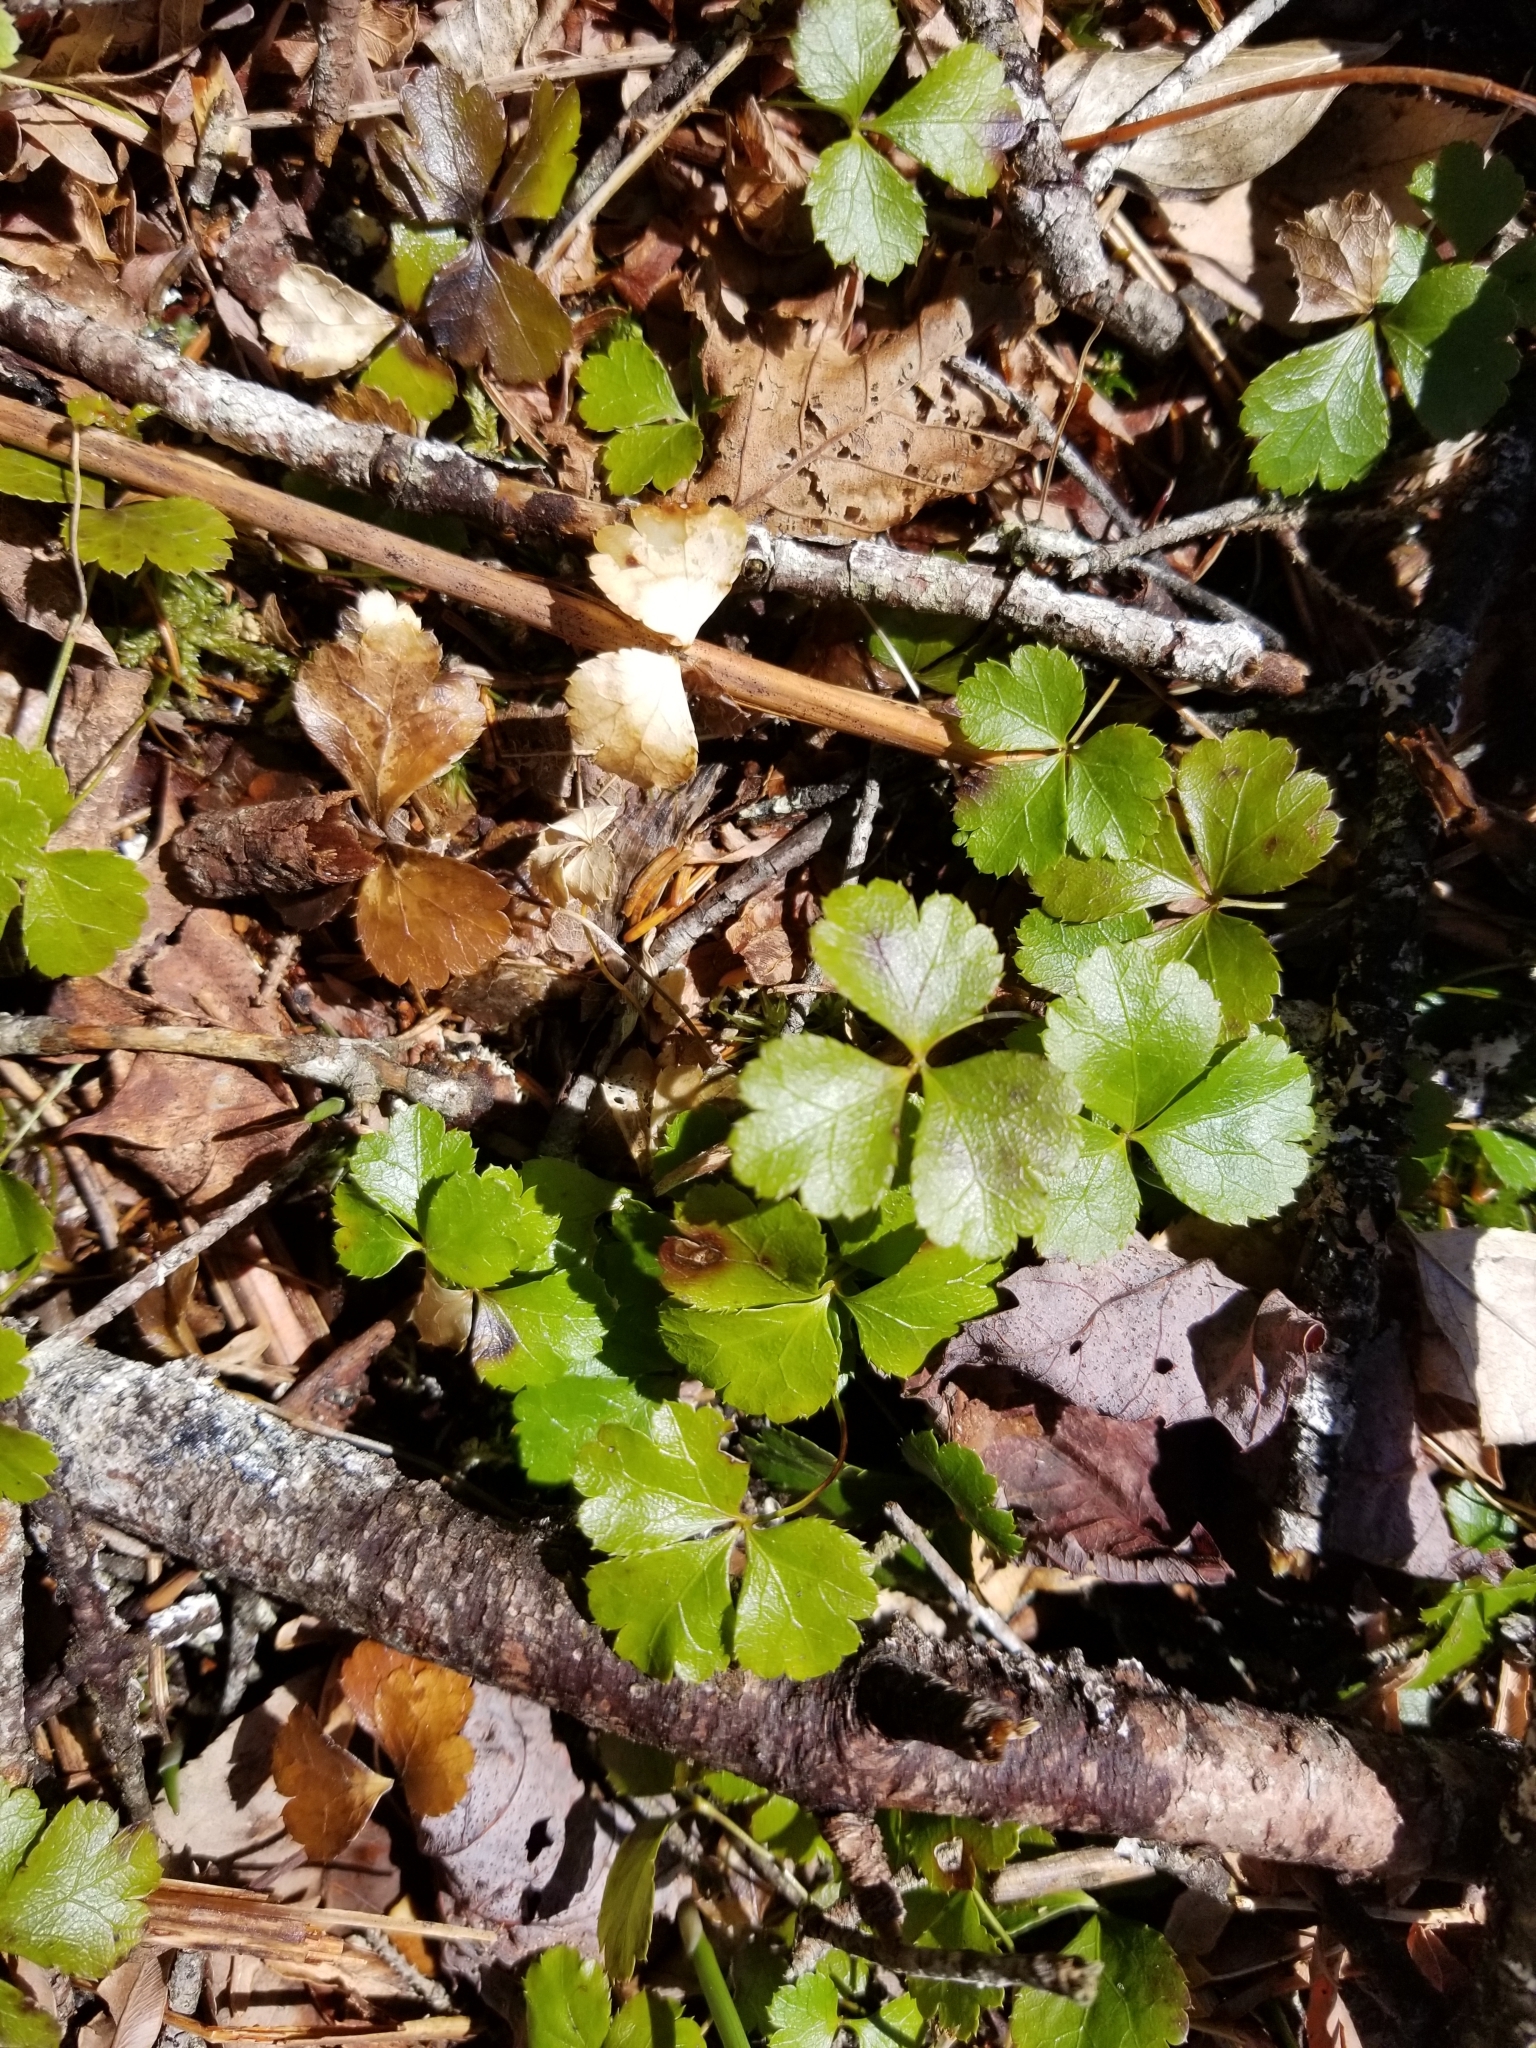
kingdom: Plantae
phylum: Tracheophyta
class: Magnoliopsida
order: Ranunculales
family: Ranunculaceae
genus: Coptis
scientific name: Coptis trifolia
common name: Canker-root
